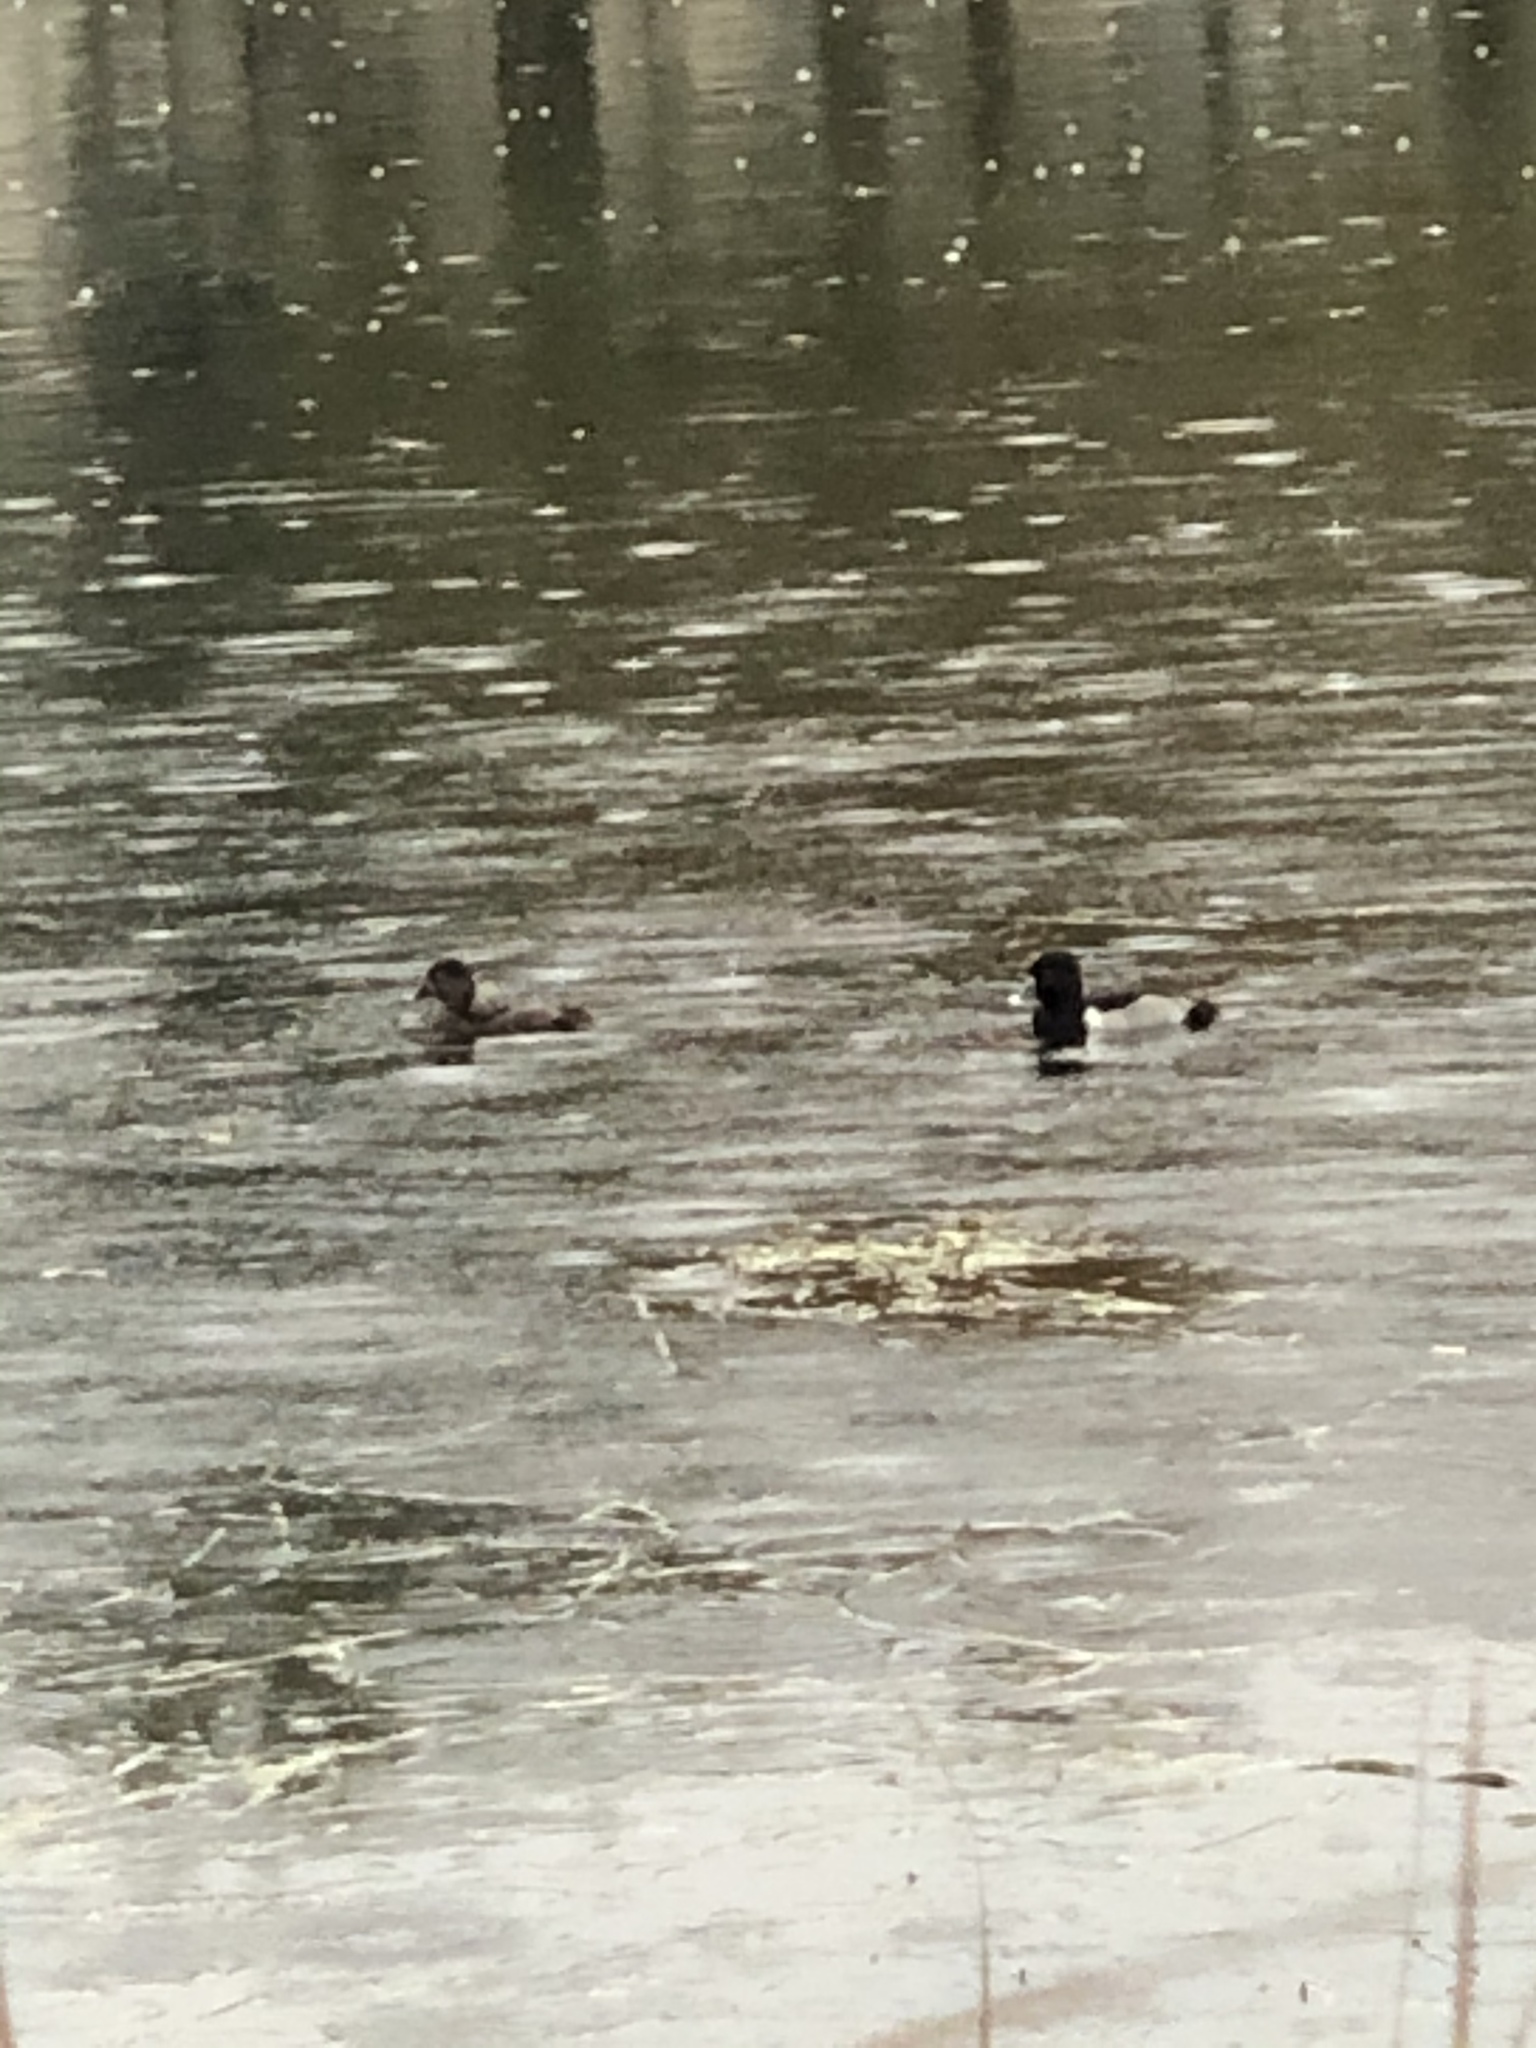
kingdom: Animalia
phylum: Chordata
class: Aves
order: Anseriformes
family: Anatidae
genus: Aythya
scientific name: Aythya collaris
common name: Ring-necked duck
